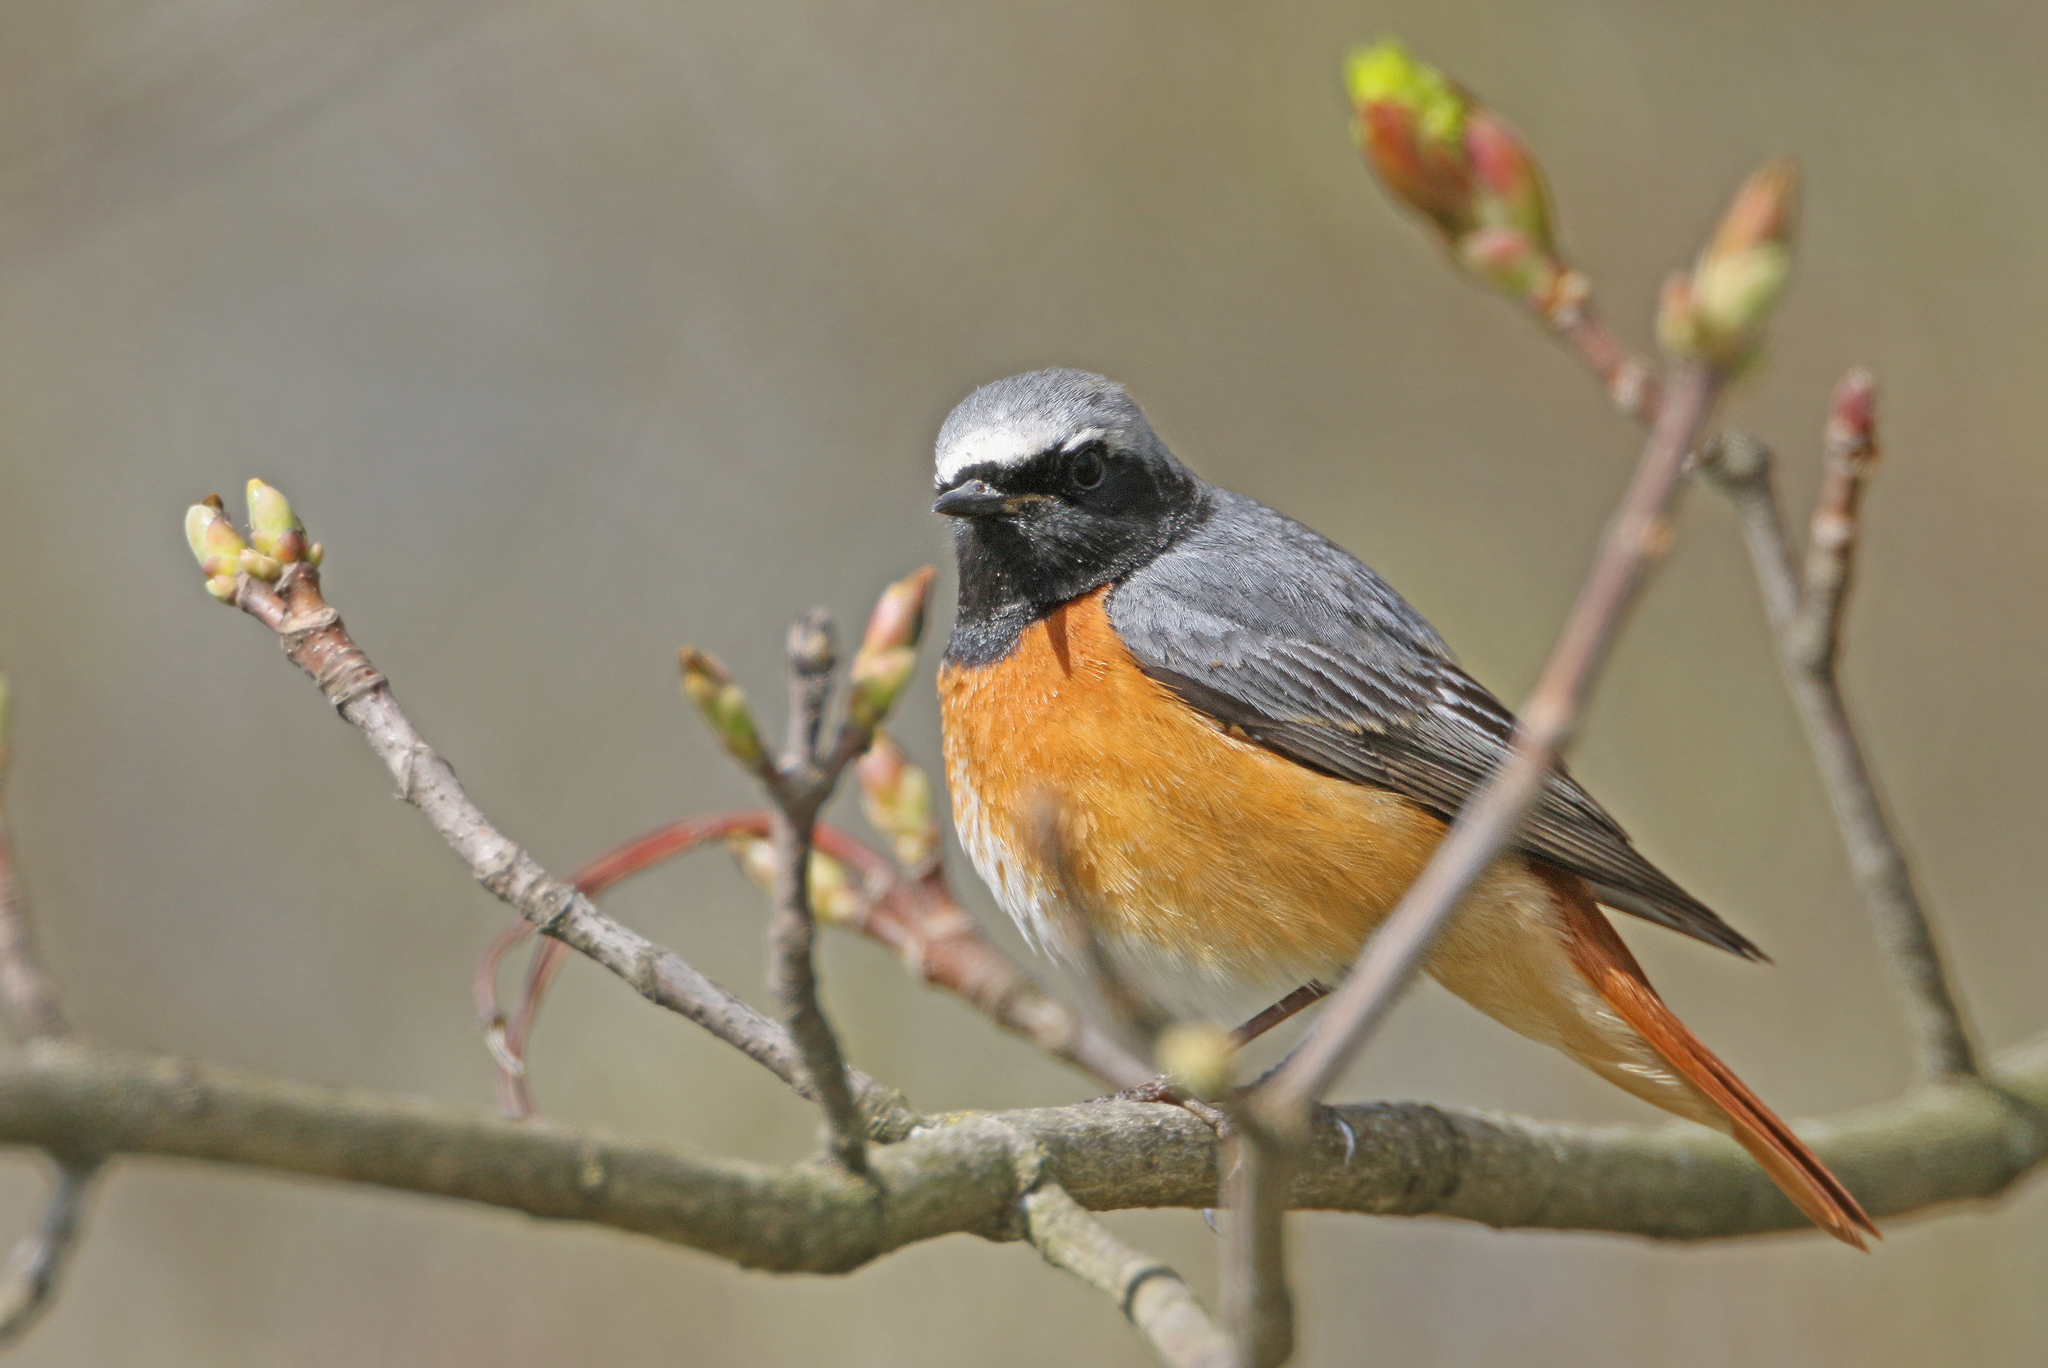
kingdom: Animalia
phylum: Chordata
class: Aves
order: Passeriformes
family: Muscicapidae
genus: Phoenicurus
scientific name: Phoenicurus phoenicurus
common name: Common redstart
